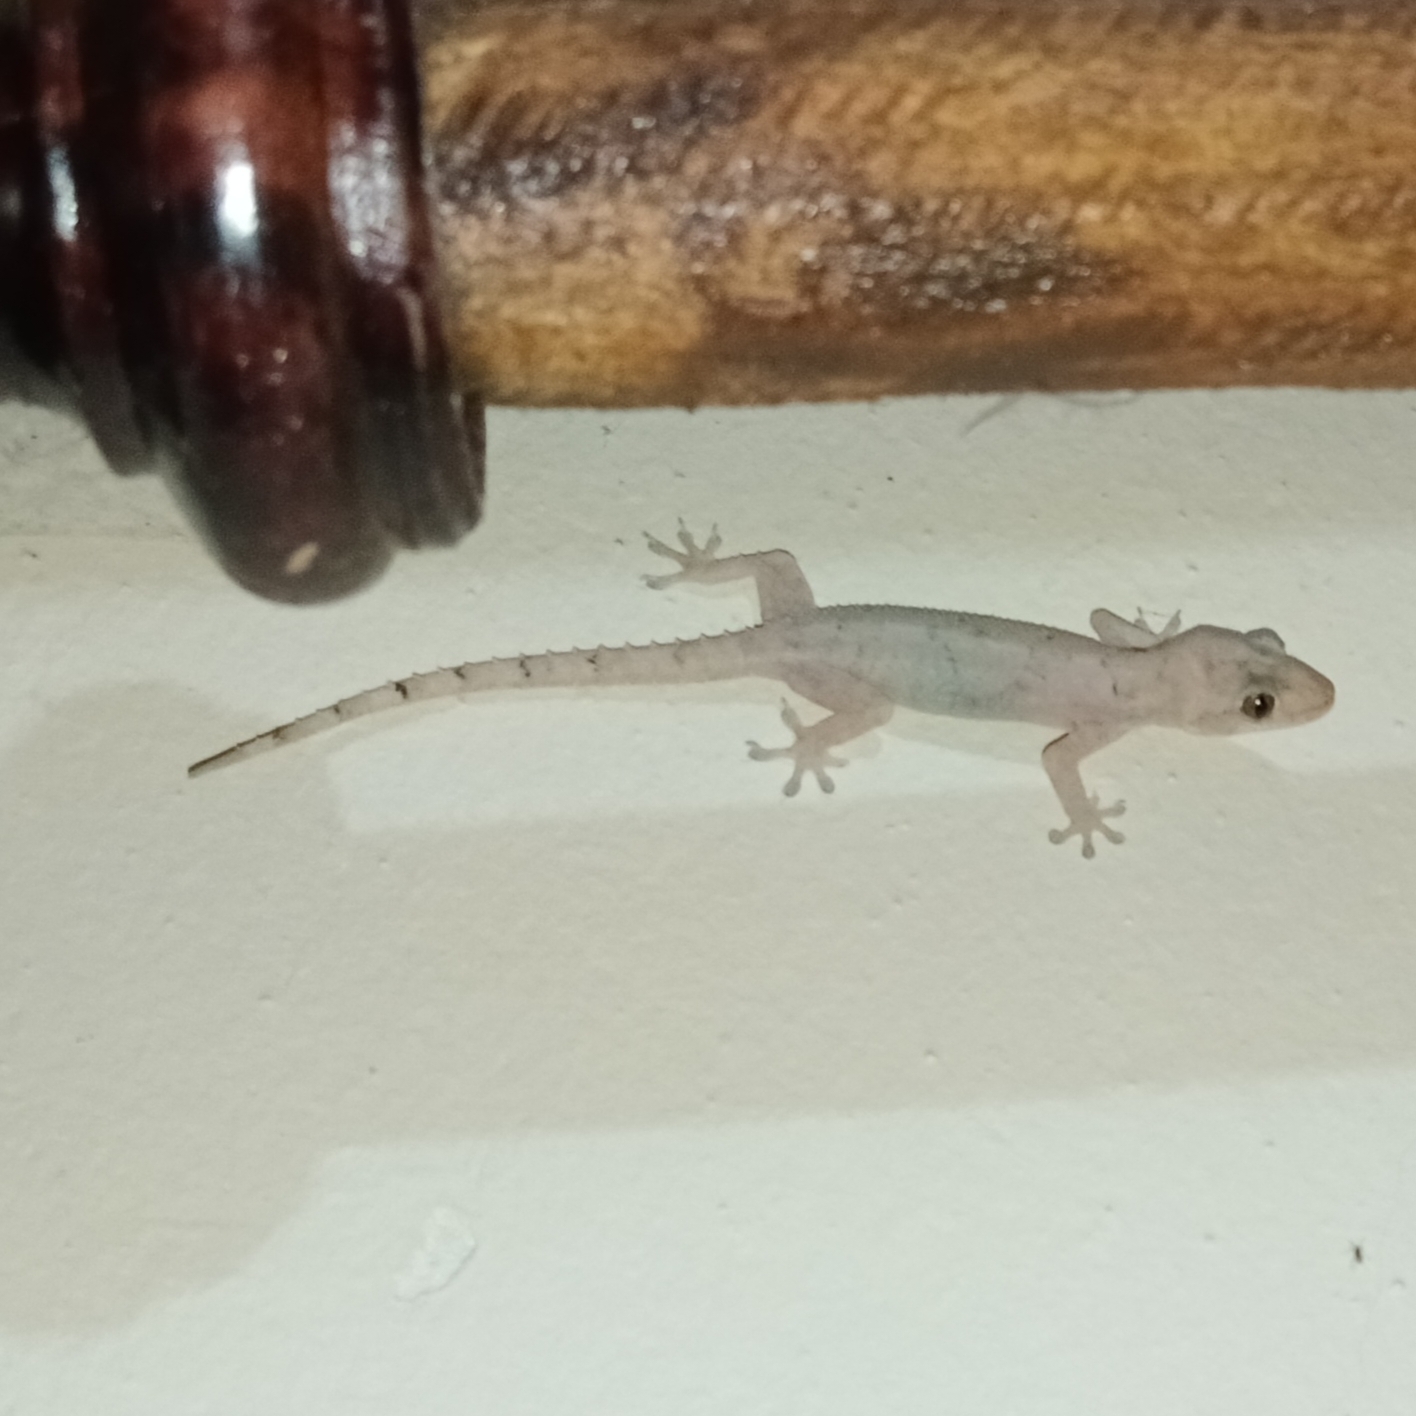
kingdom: Animalia
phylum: Chordata
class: Squamata
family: Gekkonidae
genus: Hemidactylus
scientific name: Hemidactylus mabouia
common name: House gecko
